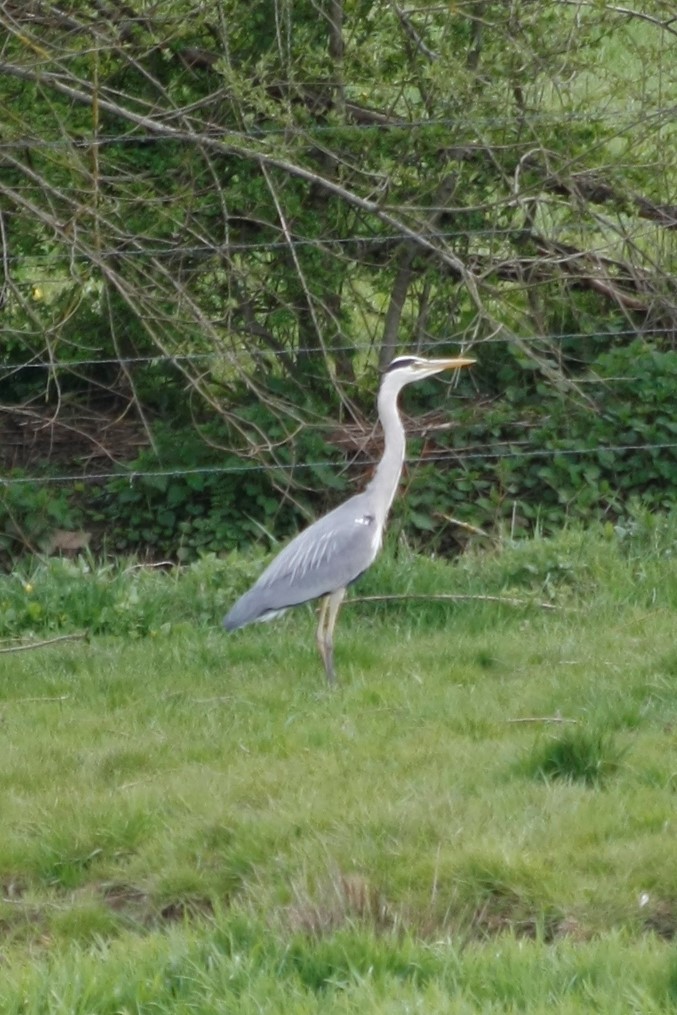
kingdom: Animalia
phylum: Chordata
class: Aves
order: Pelecaniformes
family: Ardeidae
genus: Ardea
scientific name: Ardea cinerea
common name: Grey heron
